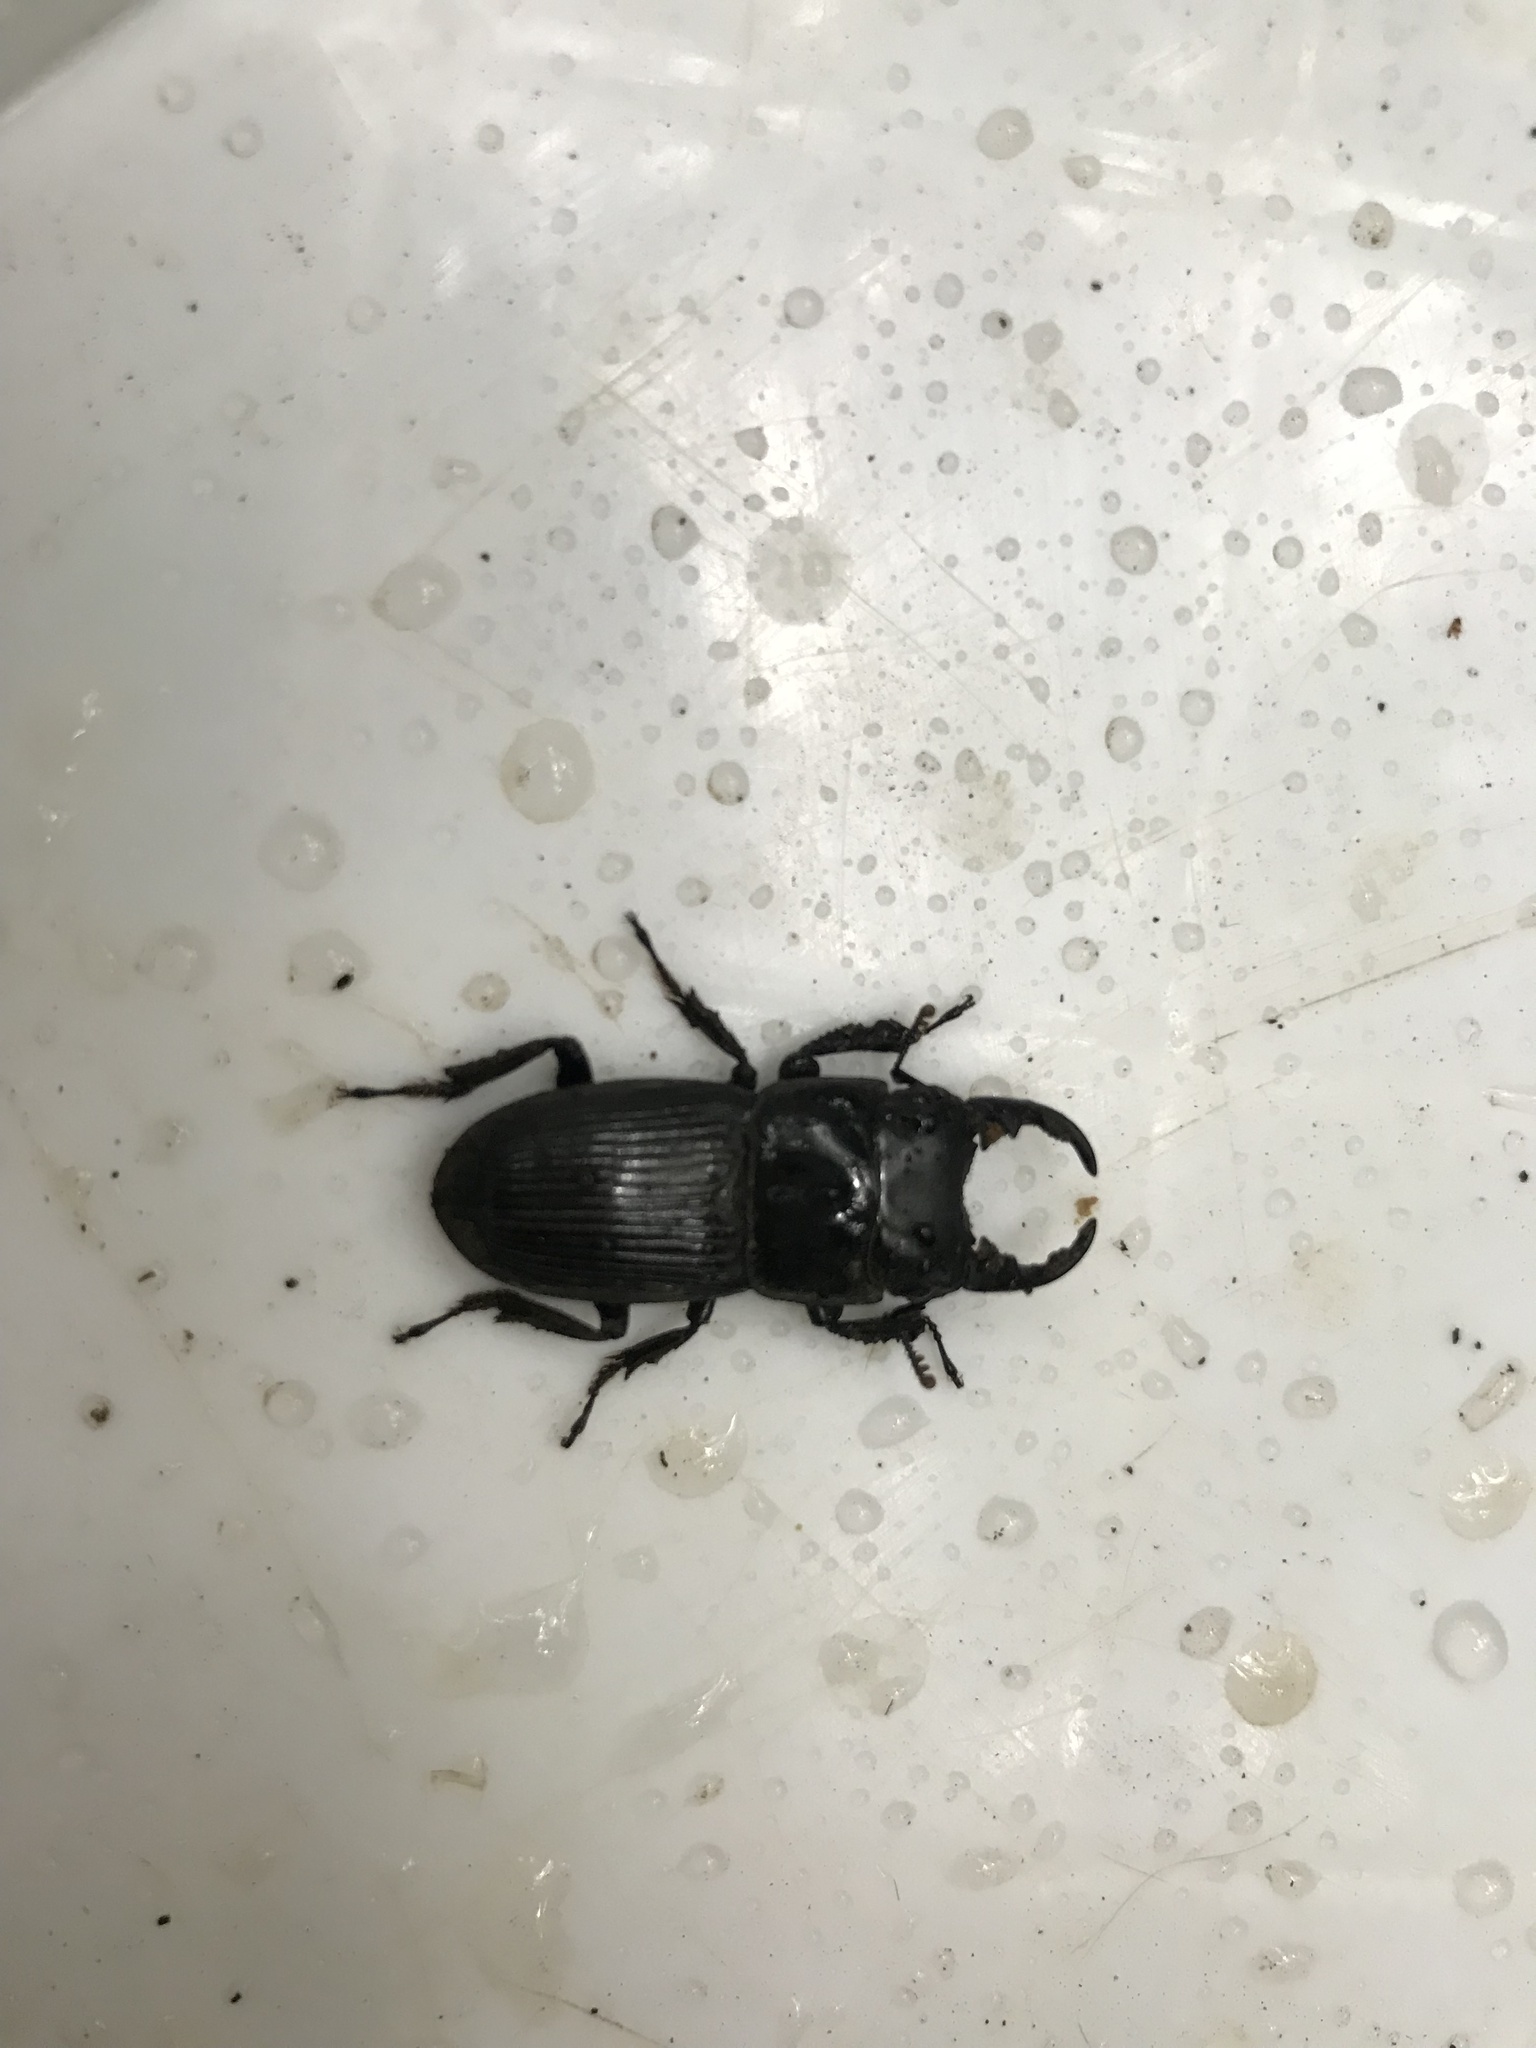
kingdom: Animalia
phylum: Arthropoda
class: Insecta
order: Coleoptera
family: Lucanidae
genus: Aegus
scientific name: Aegus laevicollis
